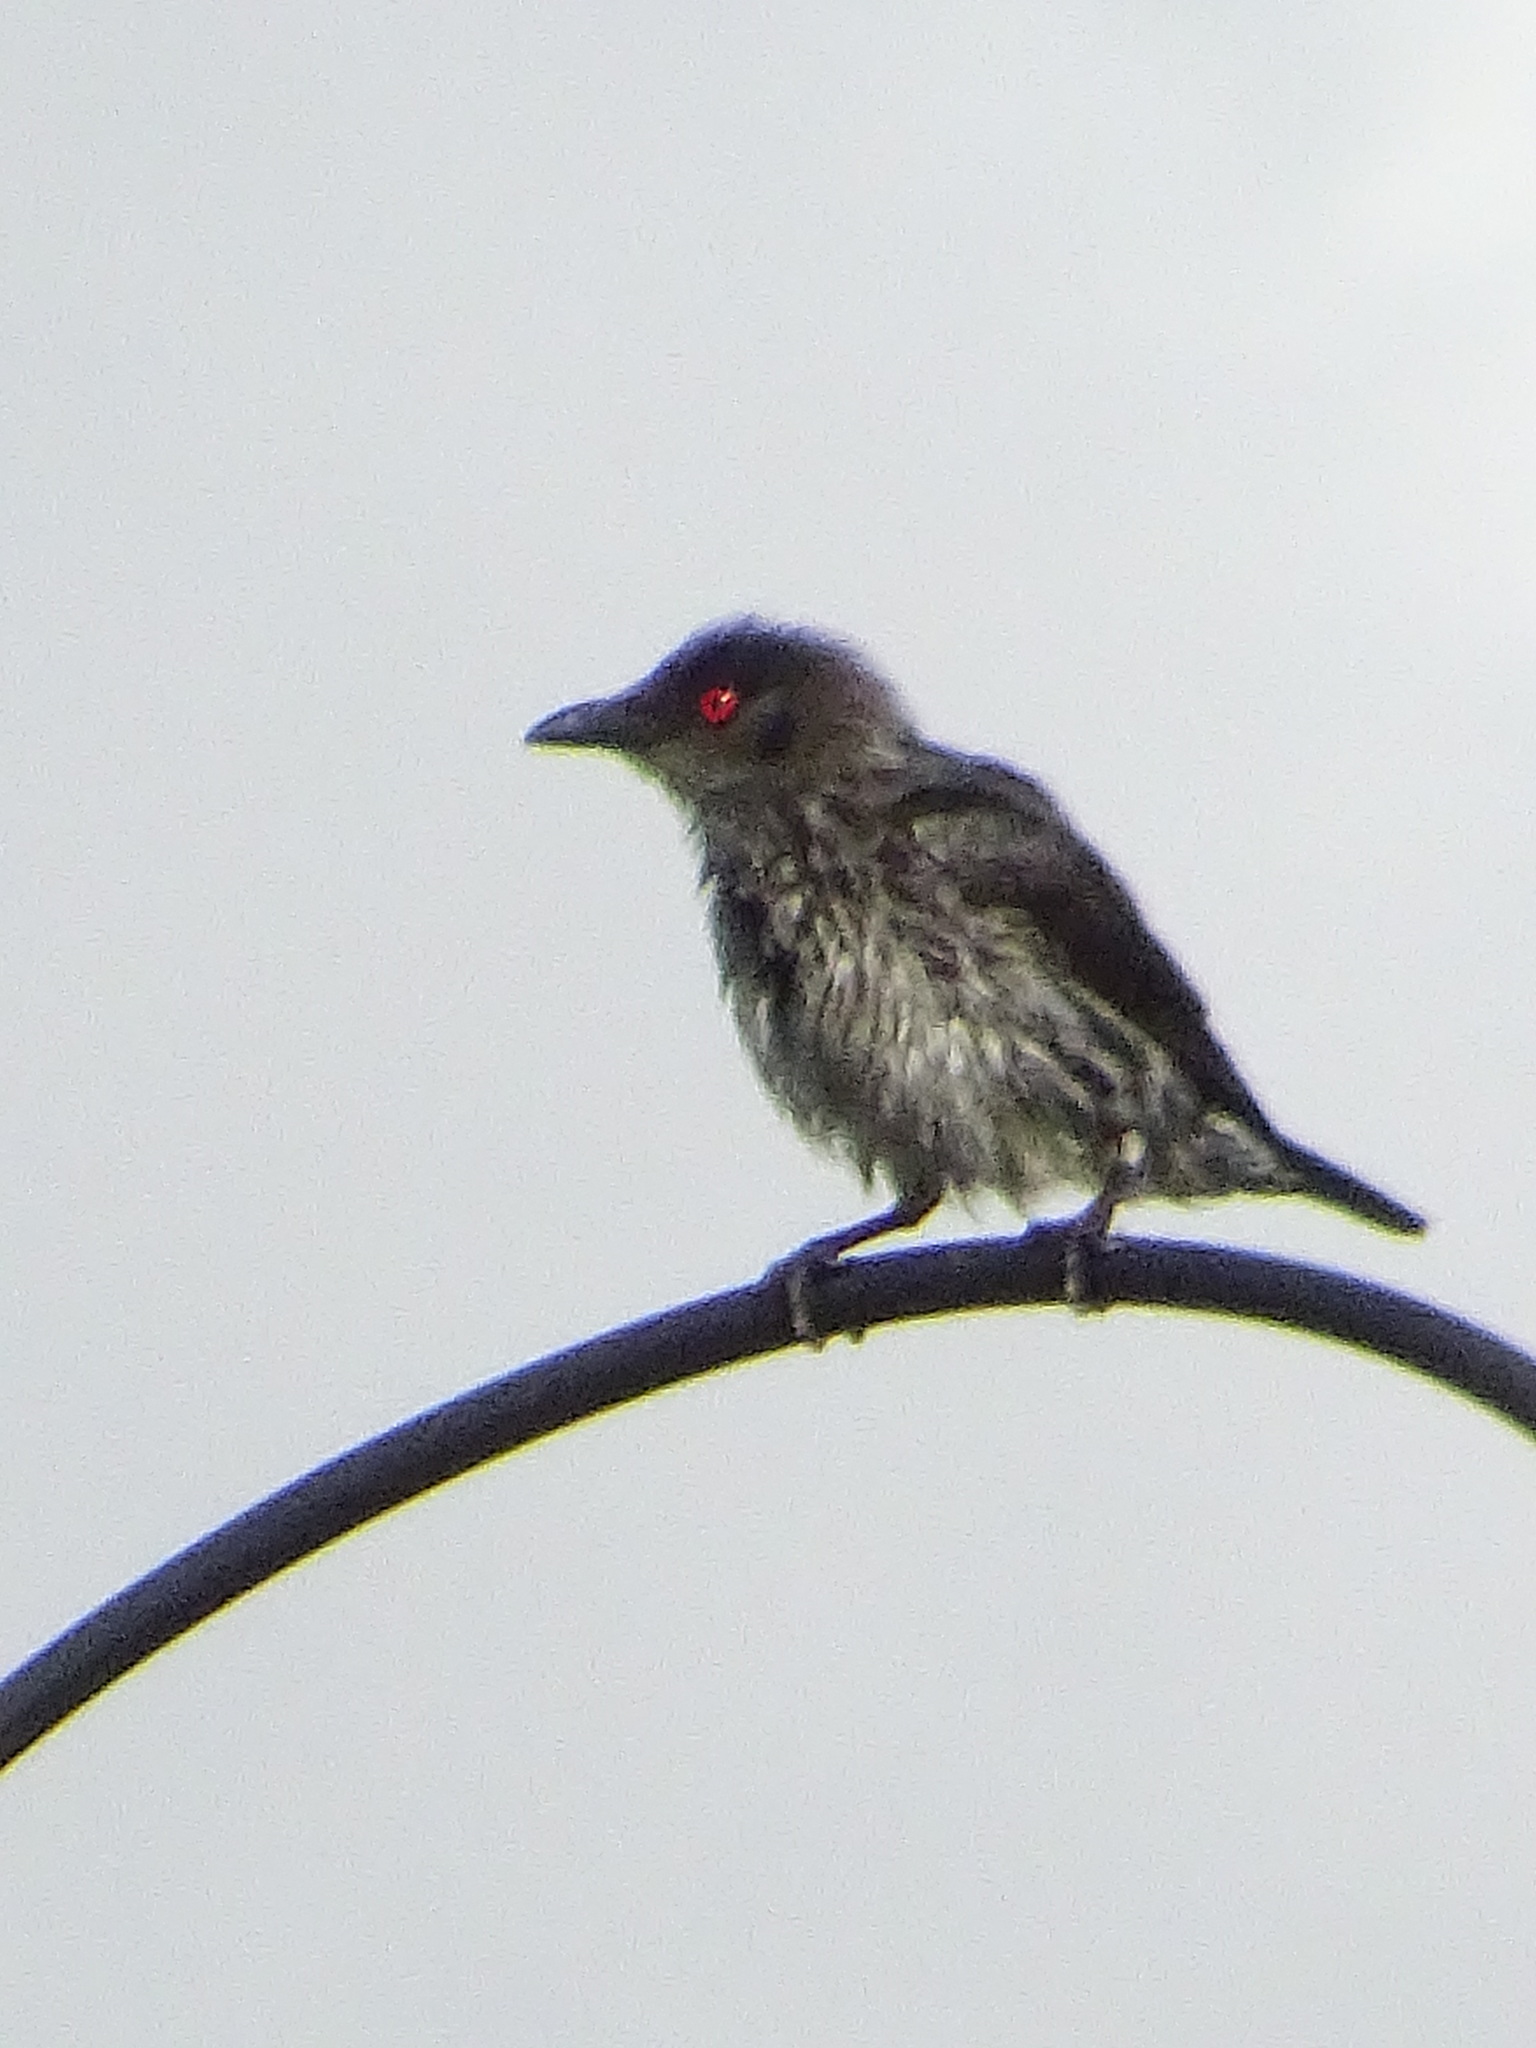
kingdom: Animalia
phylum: Chordata
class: Aves
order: Passeriformes
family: Sturnidae
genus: Aplonis
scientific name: Aplonis panayensis
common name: Asian glossy starling
